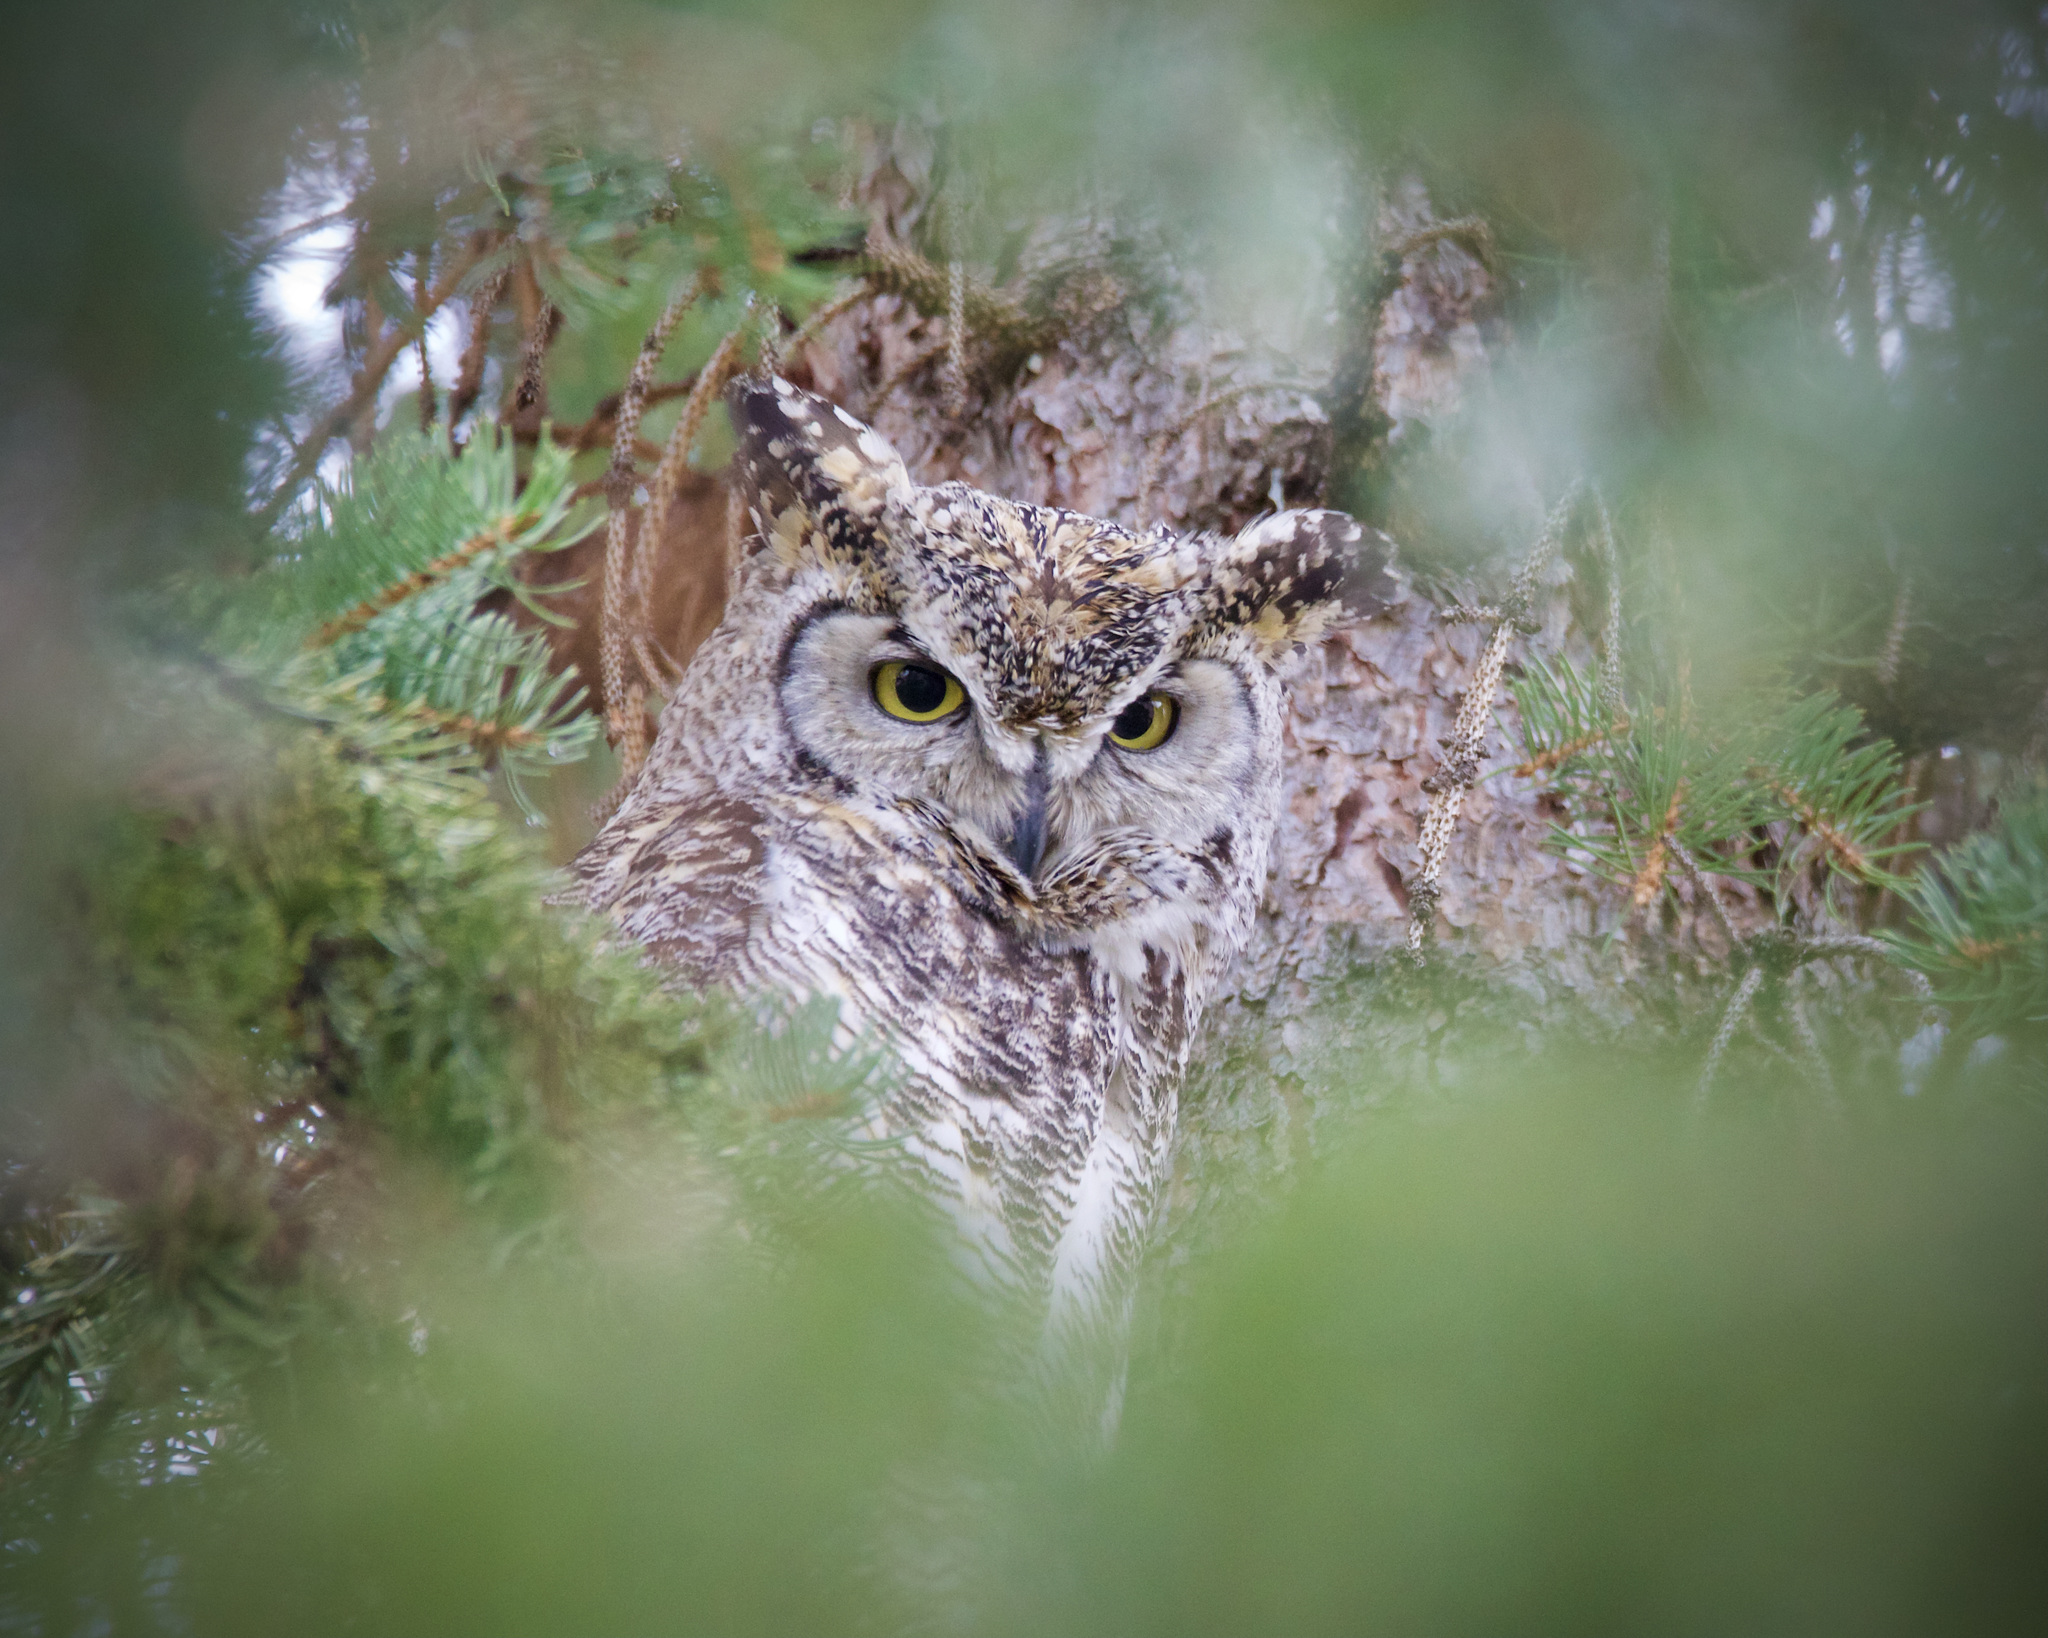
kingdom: Animalia
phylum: Chordata
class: Aves
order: Strigiformes
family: Strigidae
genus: Bubo
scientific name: Bubo virginianus
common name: Great horned owl
